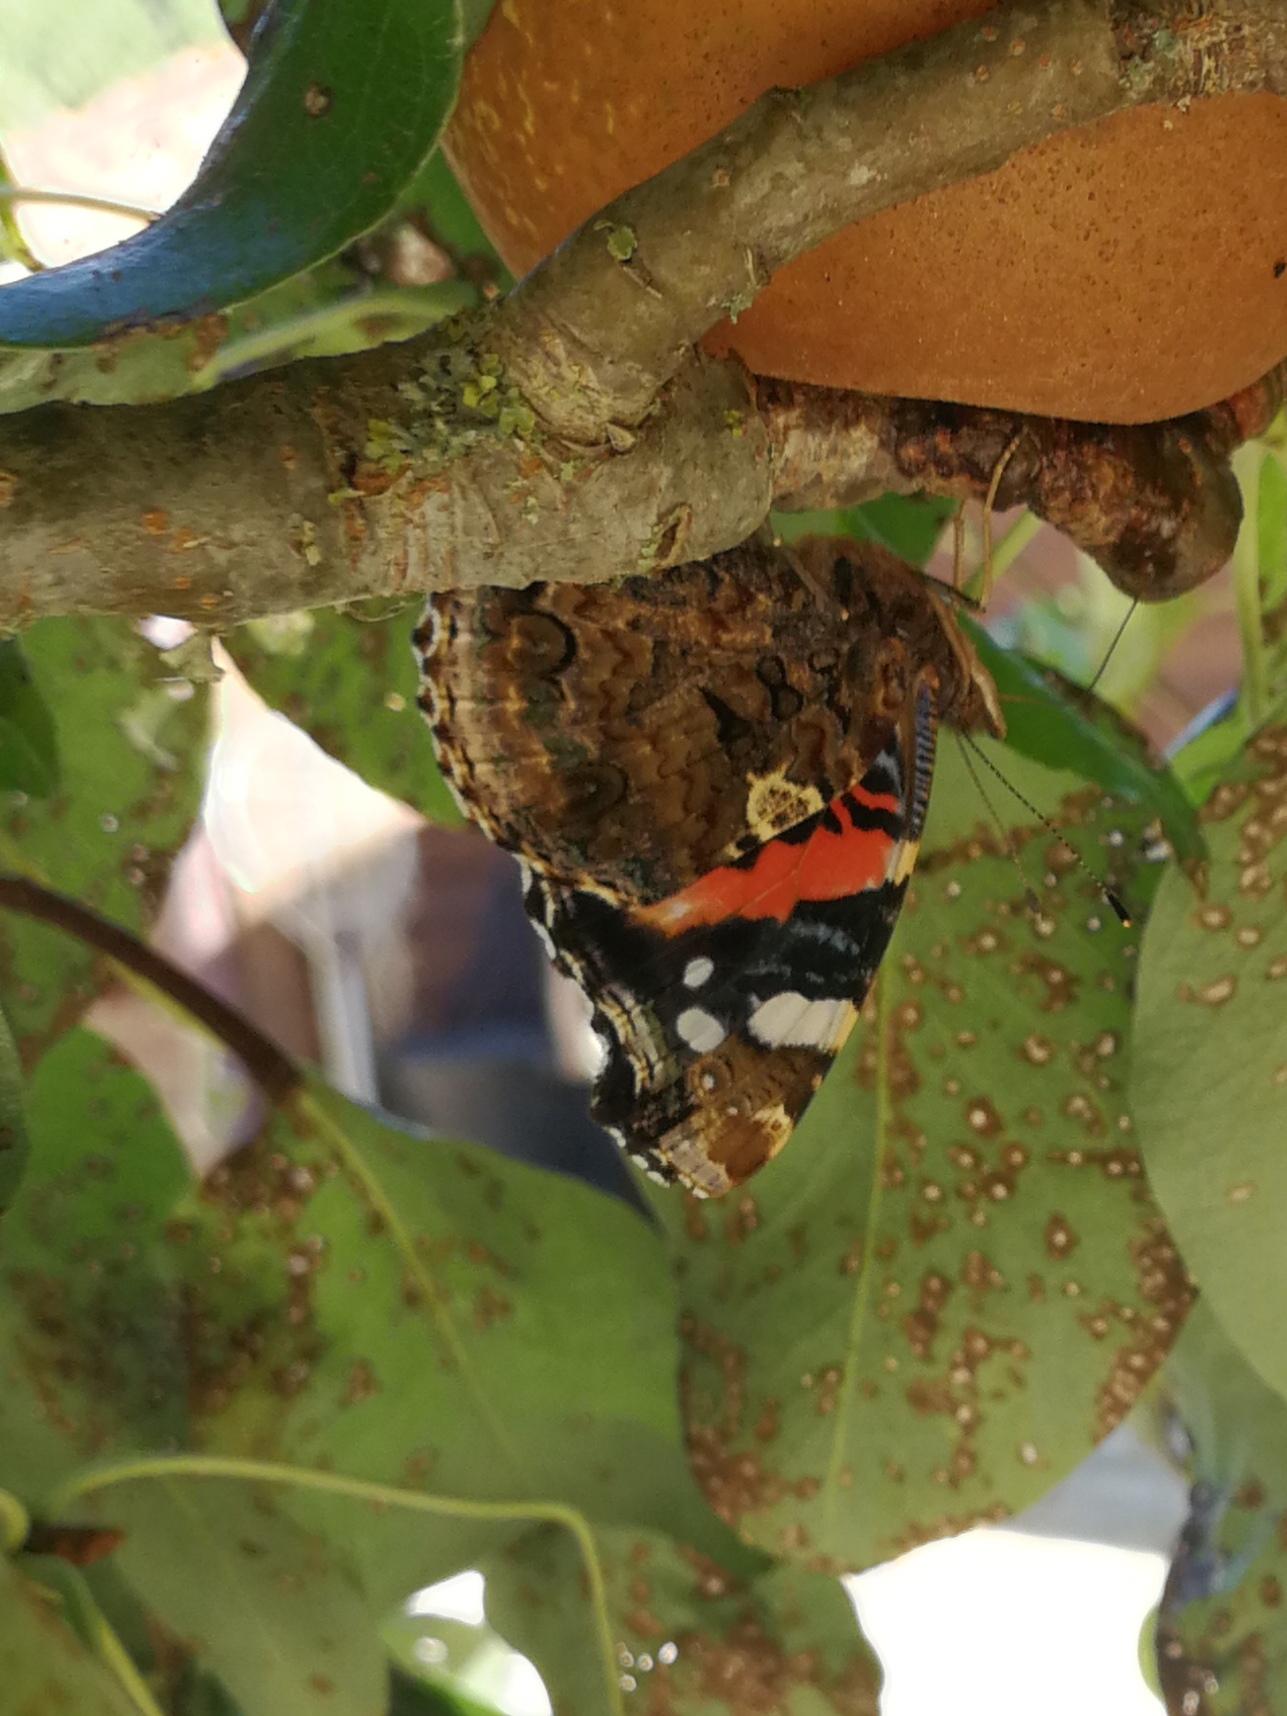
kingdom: Animalia
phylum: Arthropoda
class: Insecta
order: Lepidoptera
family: Nymphalidae
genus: Vanessa
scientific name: Vanessa atalanta
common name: Red admiral
